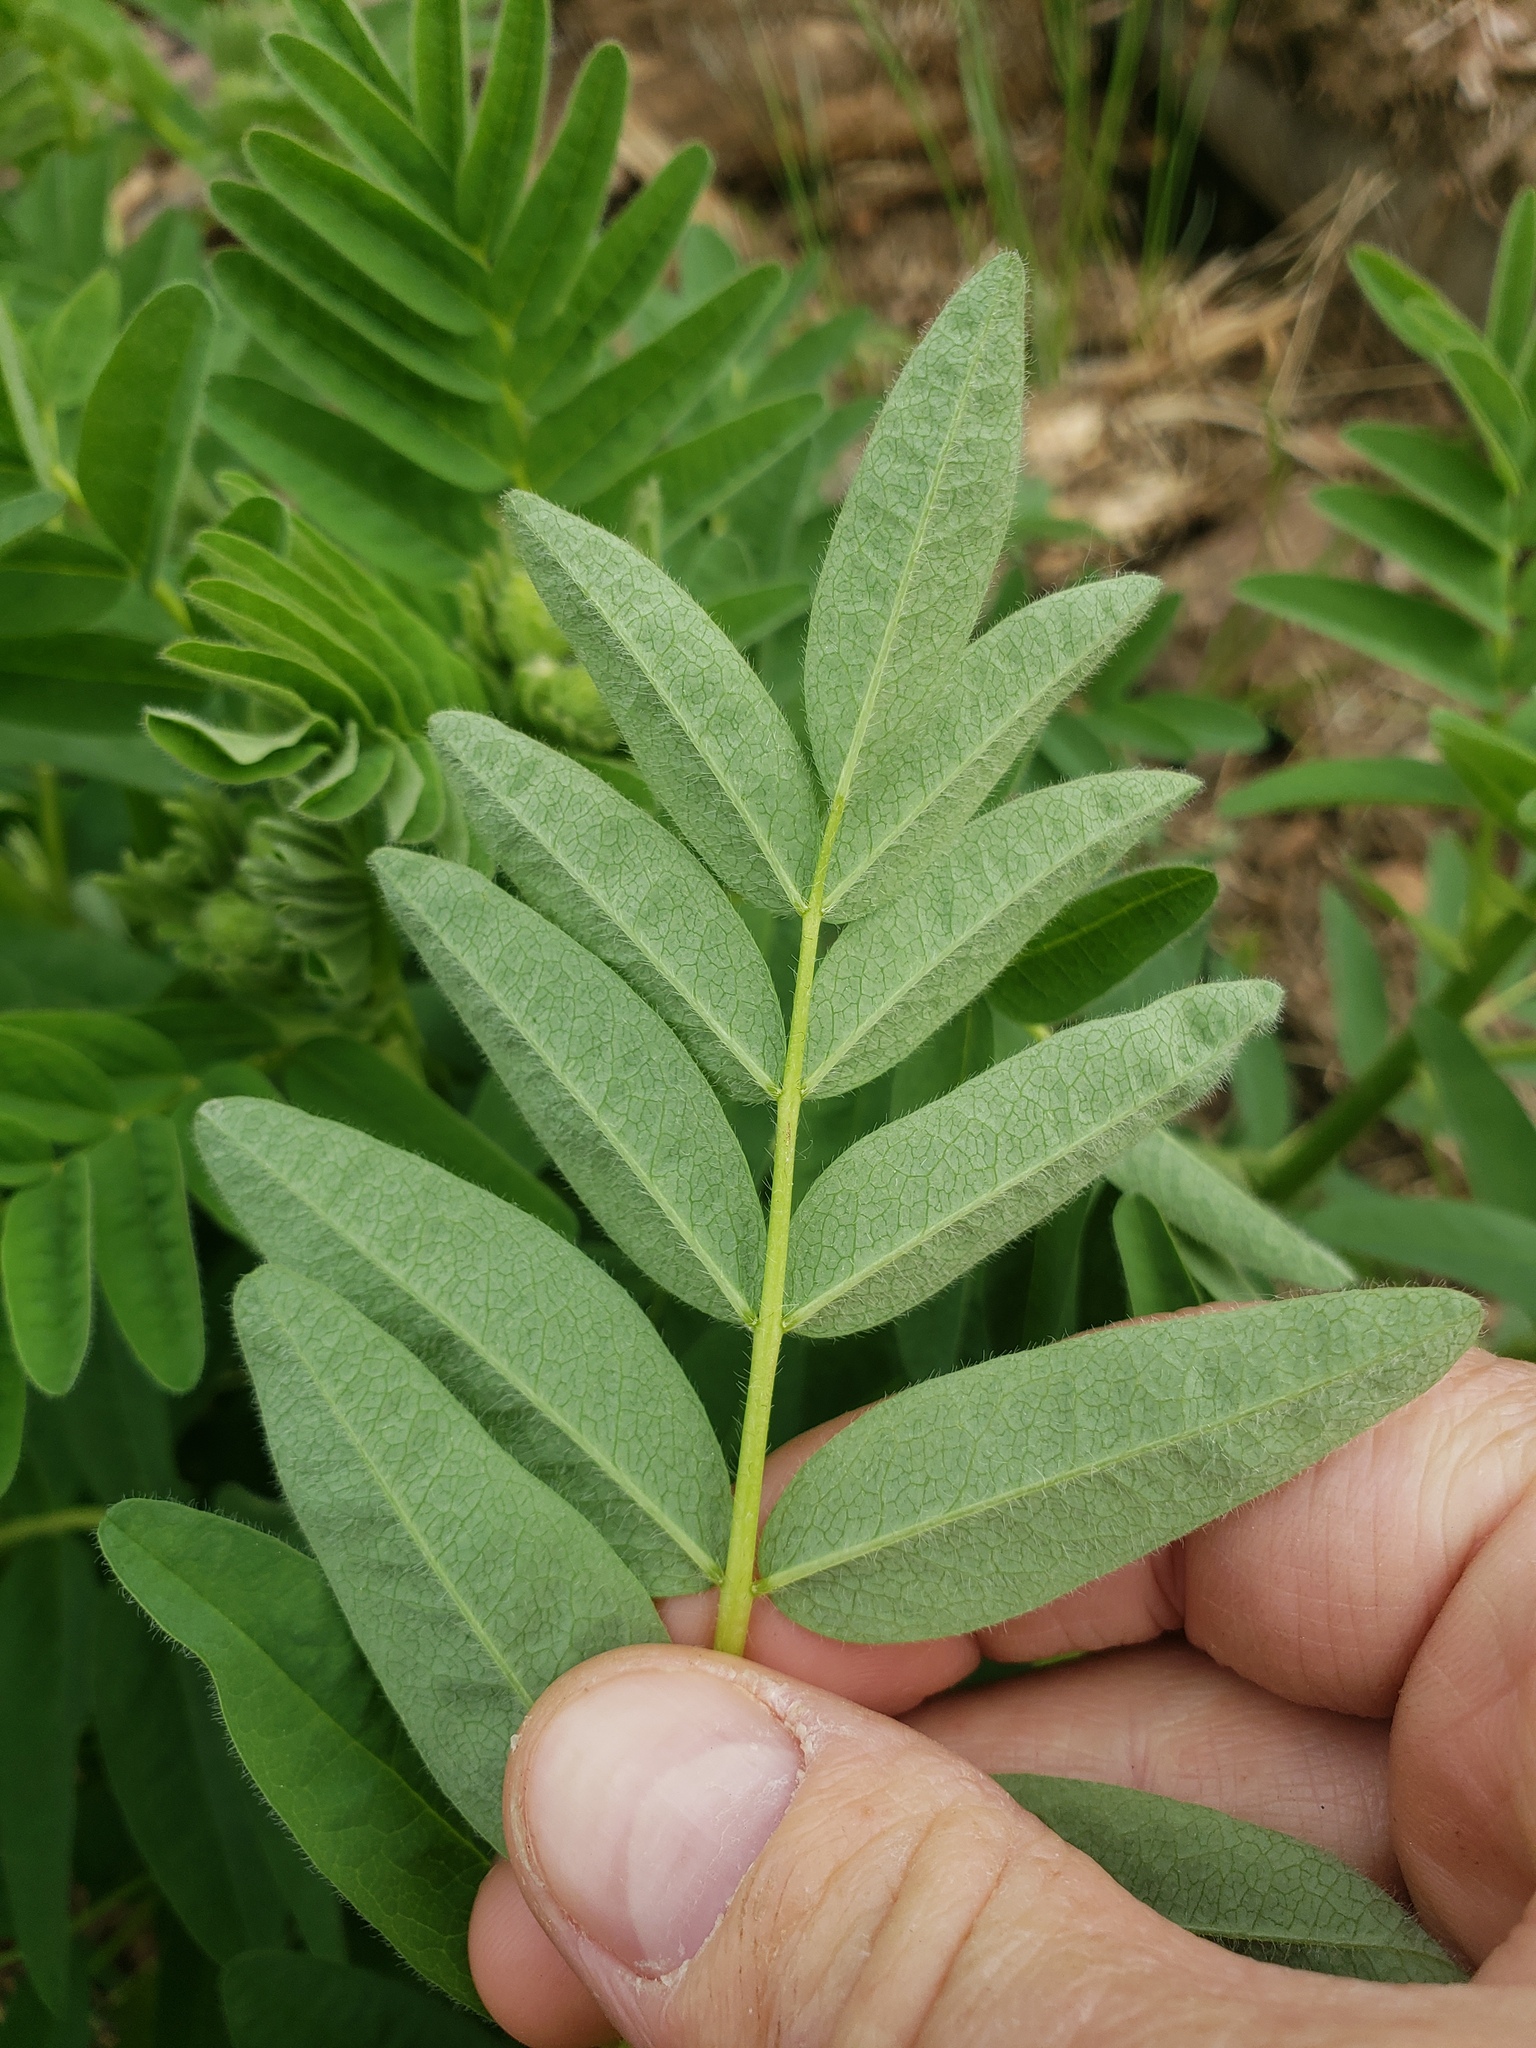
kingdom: Plantae
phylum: Tracheophyta
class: Magnoliopsida
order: Fabales
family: Fabaceae
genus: Astragalus
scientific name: Astragalus americanus
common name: American milk-vetch
